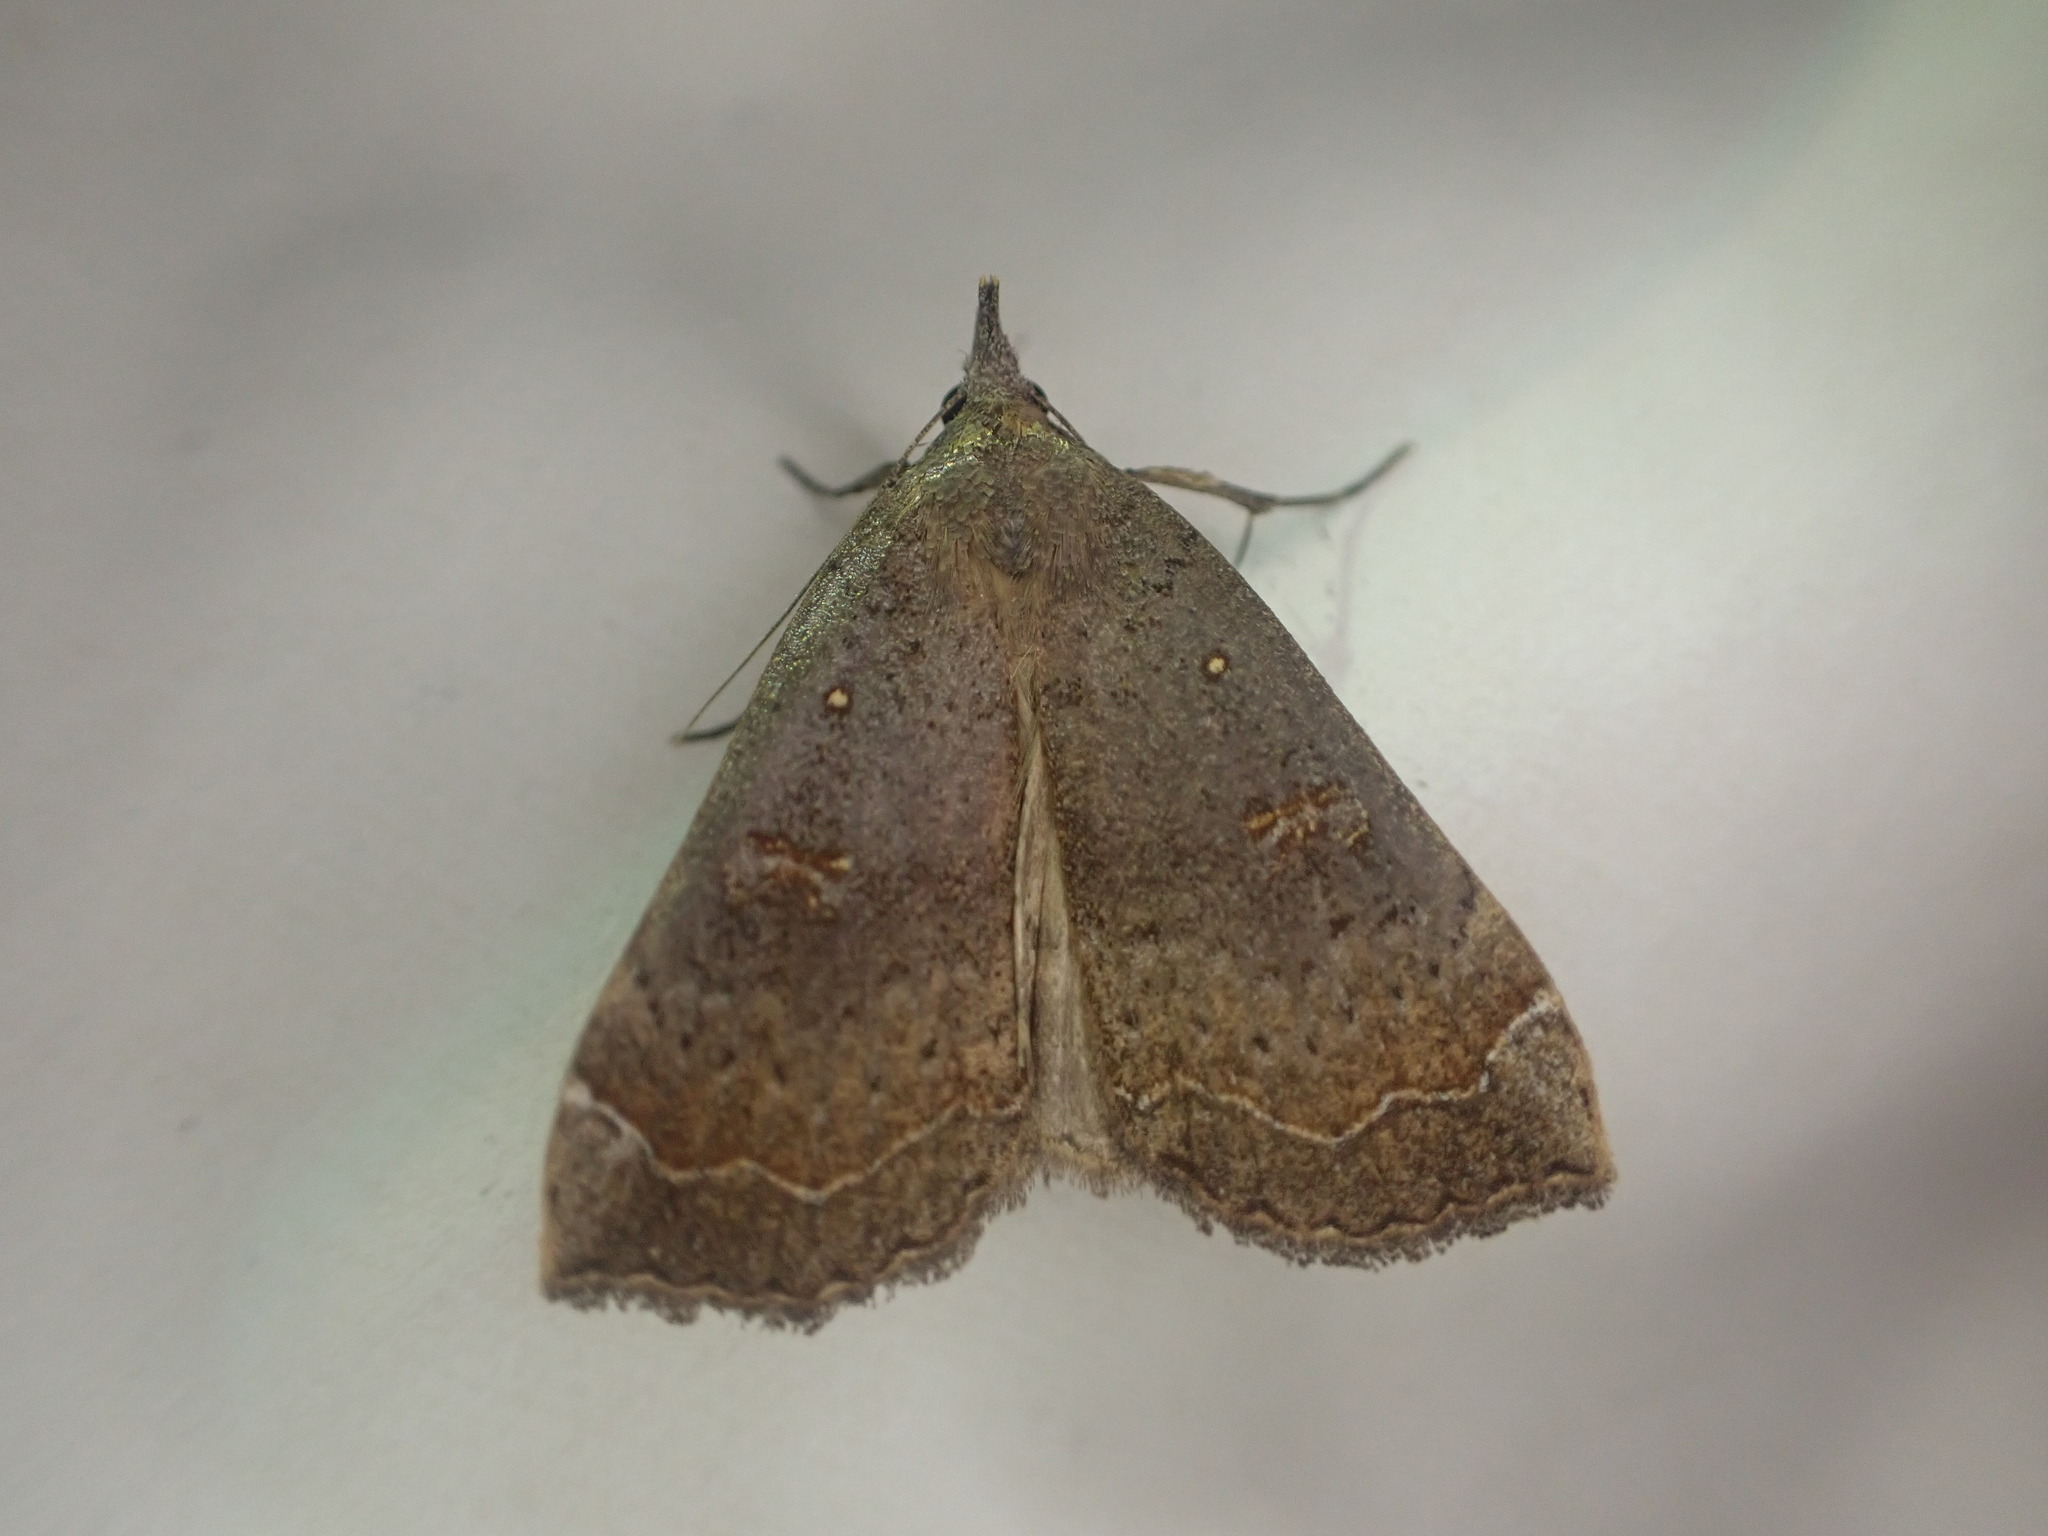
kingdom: Animalia
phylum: Arthropoda
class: Insecta
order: Lepidoptera
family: Erebidae
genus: Rhapsa
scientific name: Rhapsa scotosialis
